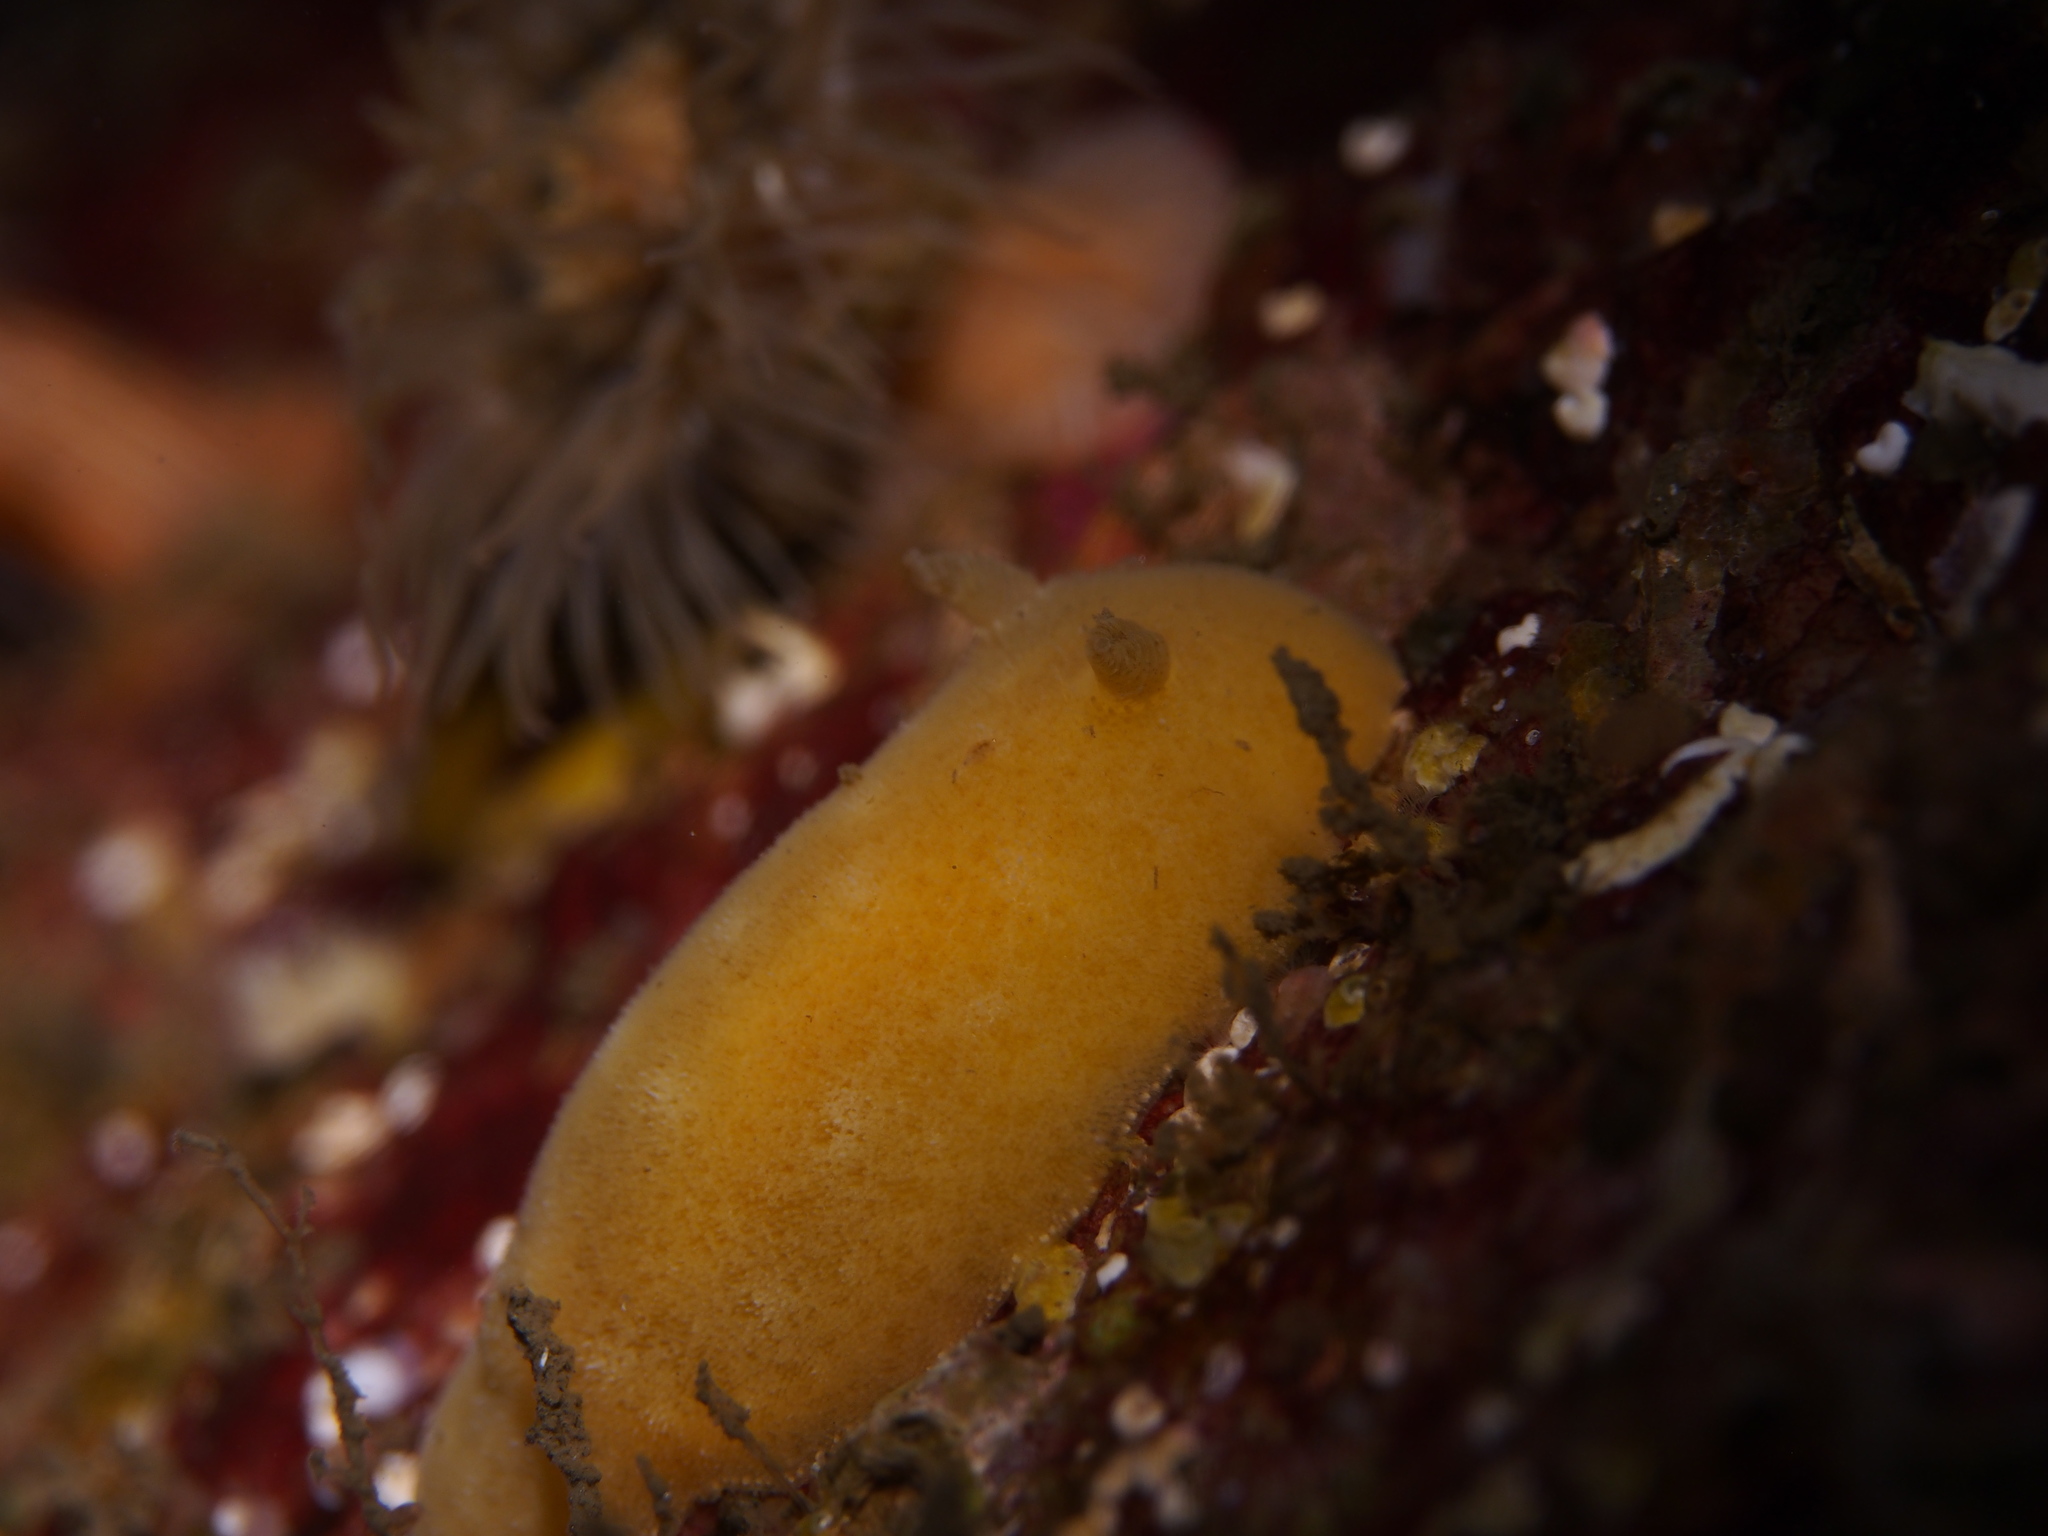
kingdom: Animalia
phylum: Mollusca
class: Gastropoda
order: Nudibranchia
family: Discodorididae
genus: Jorunna
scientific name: Jorunna tomentosa
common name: Grey sea slug
